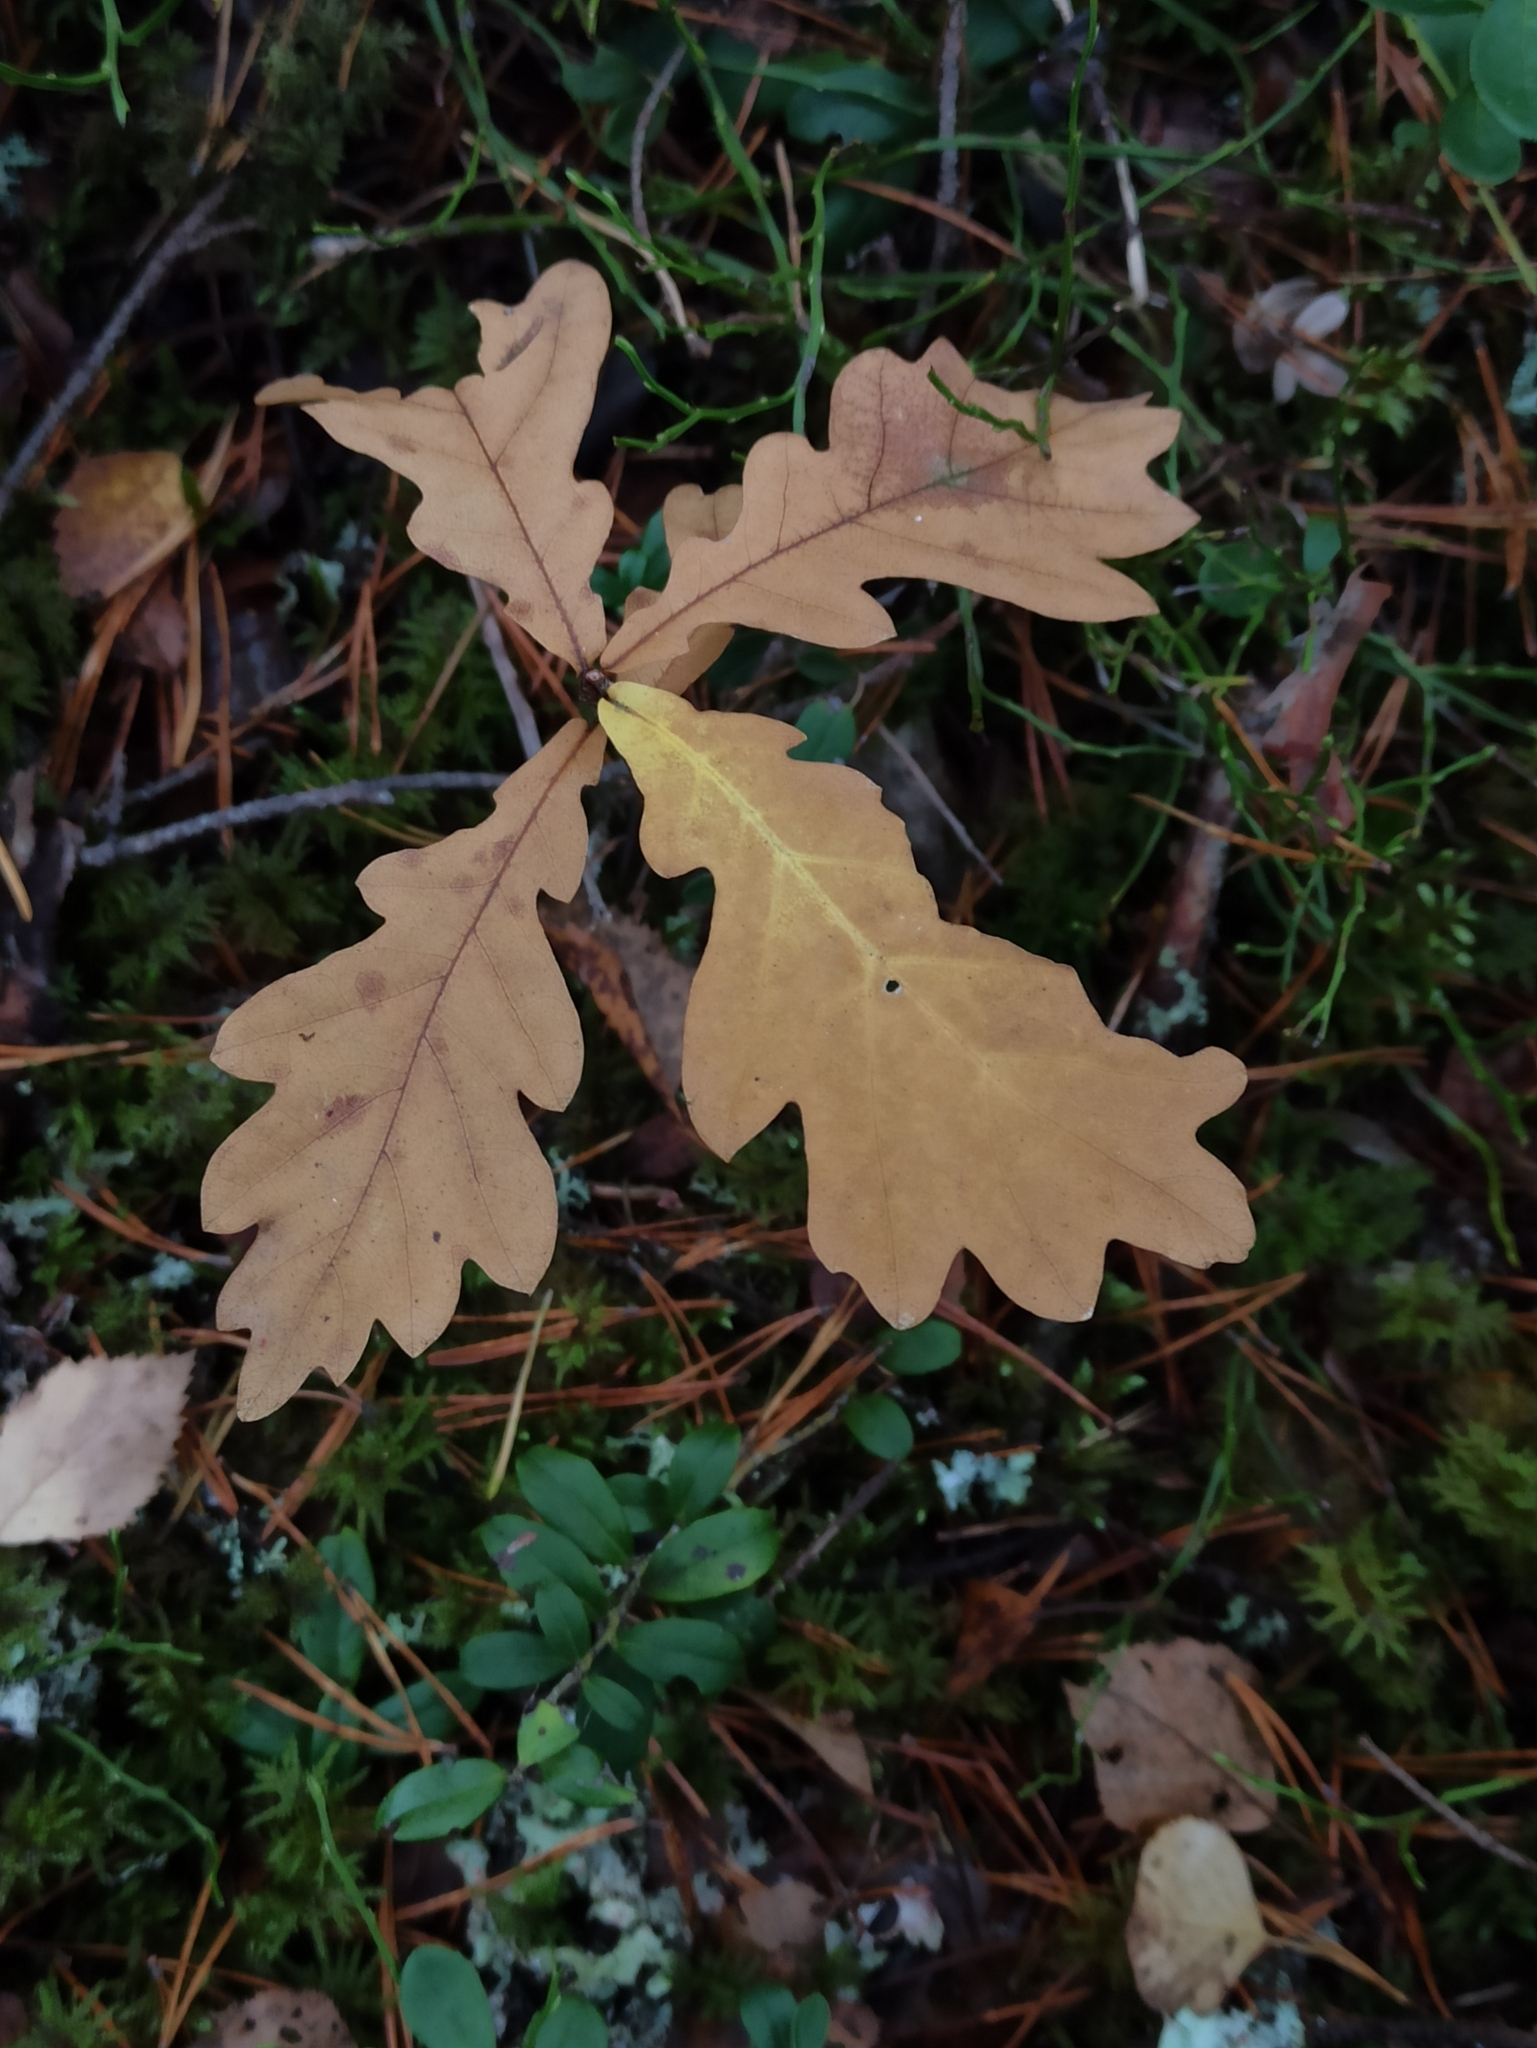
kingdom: Plantae
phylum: Tracheophyta
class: Magnoliopsida
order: Fagales
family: Fagaceae
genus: Quercus
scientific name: Quercus robur
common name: Pedunculate oak
